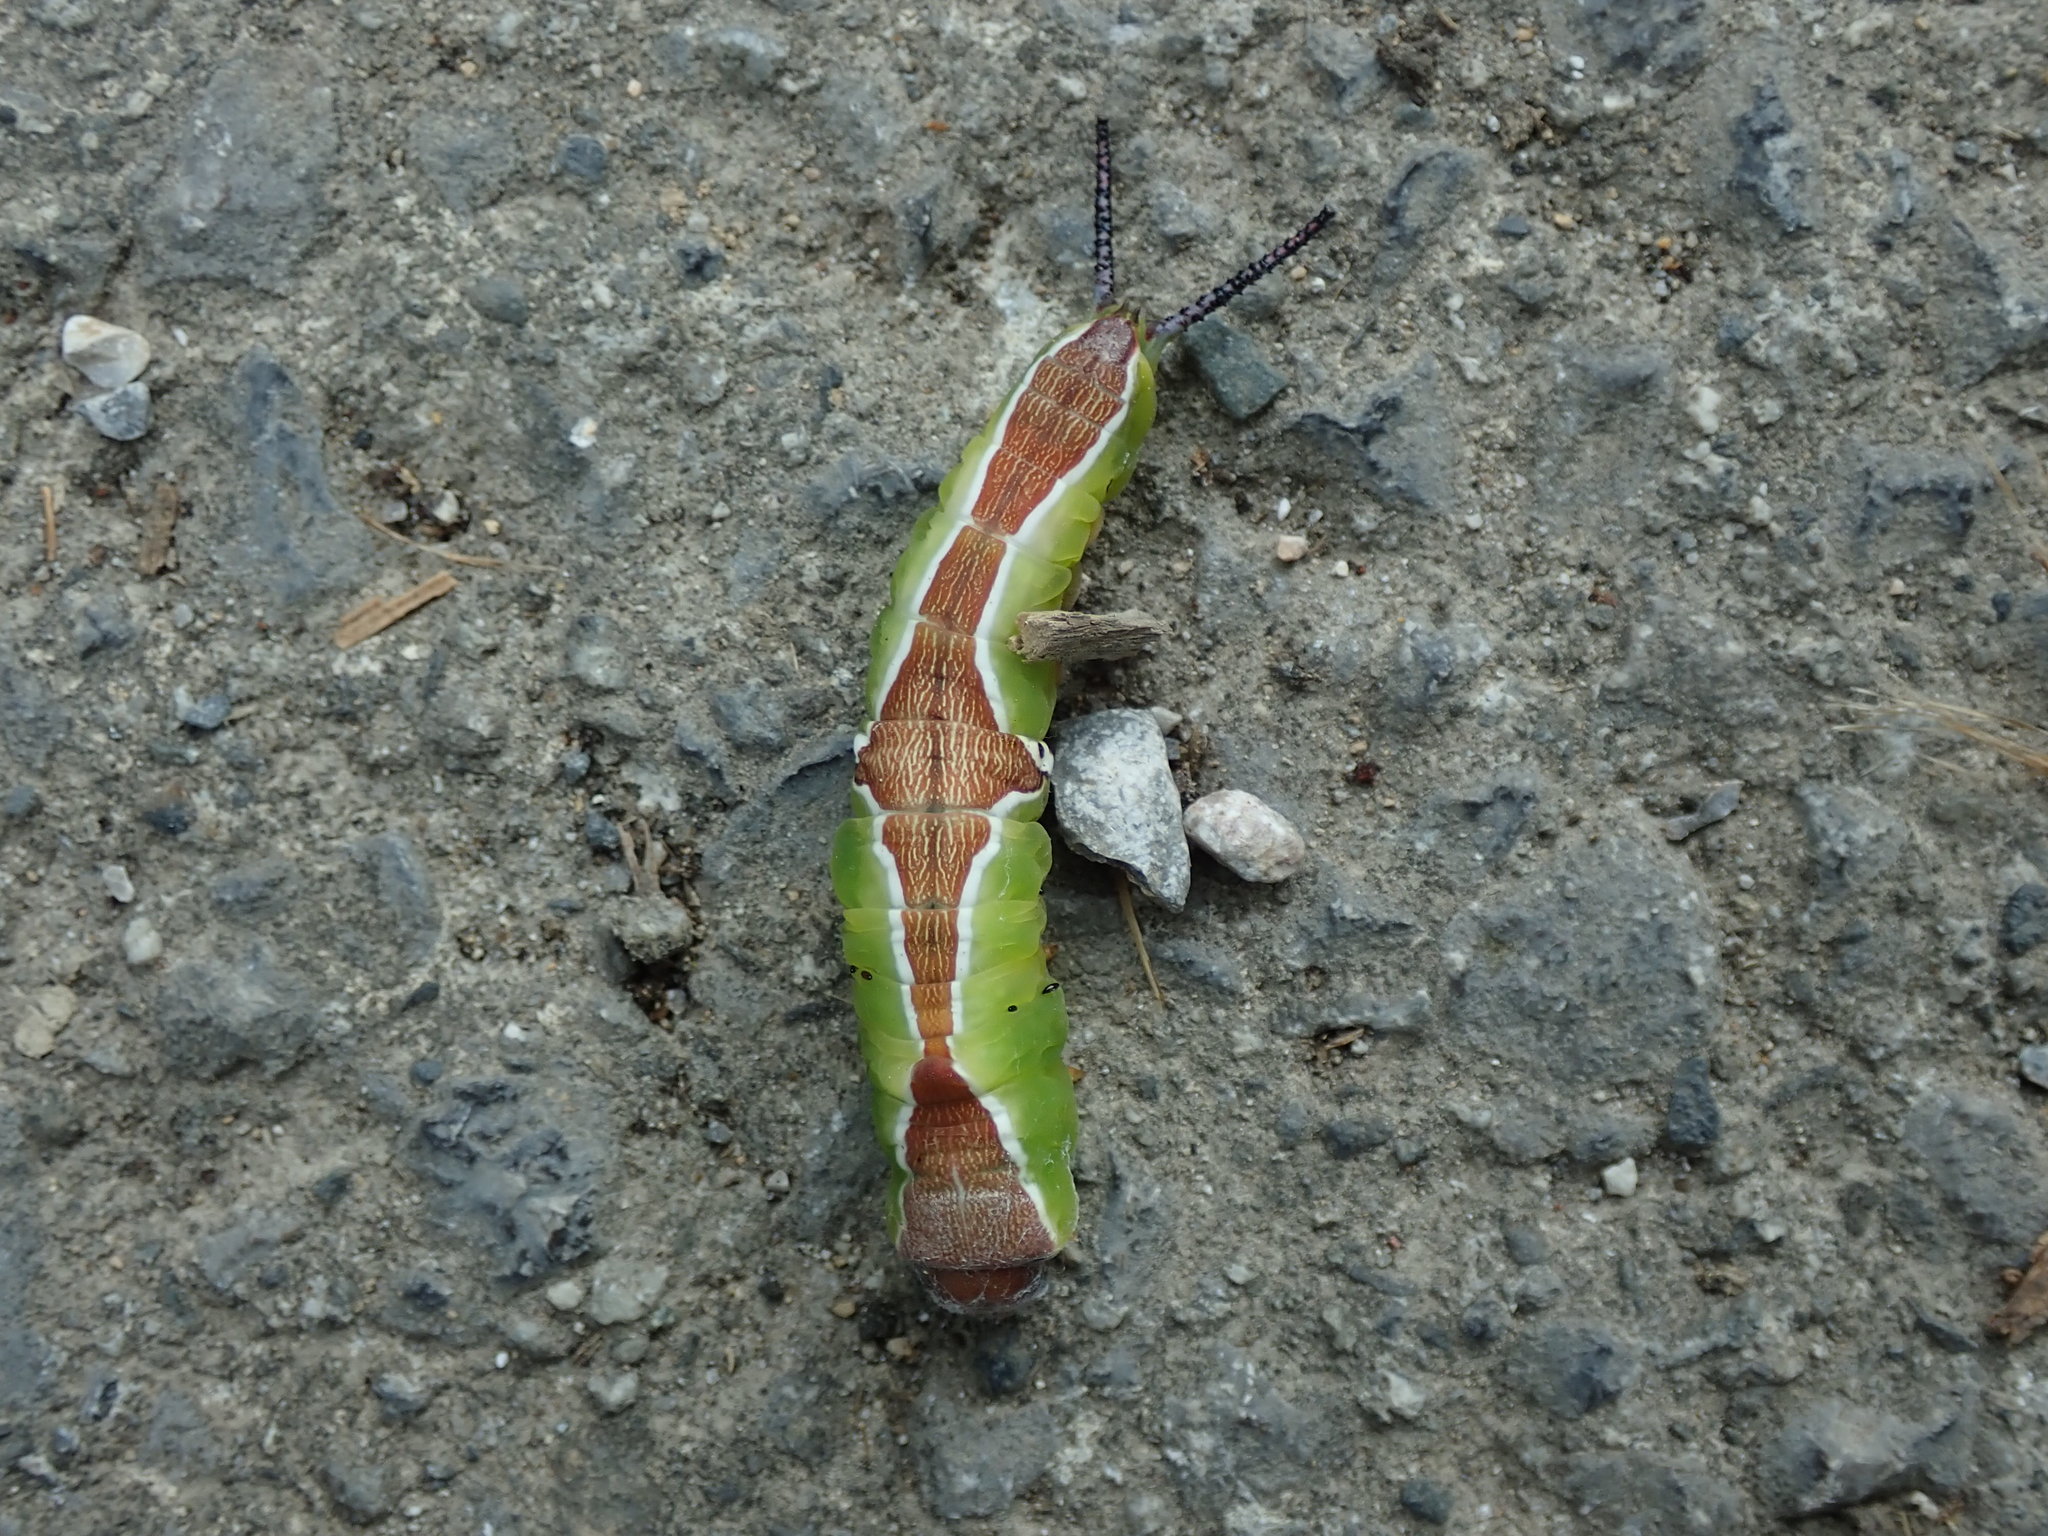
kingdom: Animalia
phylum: Arthropoda
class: Insecta
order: Lepidoptera
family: Notodontidae
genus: Cerura
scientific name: Cerura erminea
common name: Lesser puss moth
